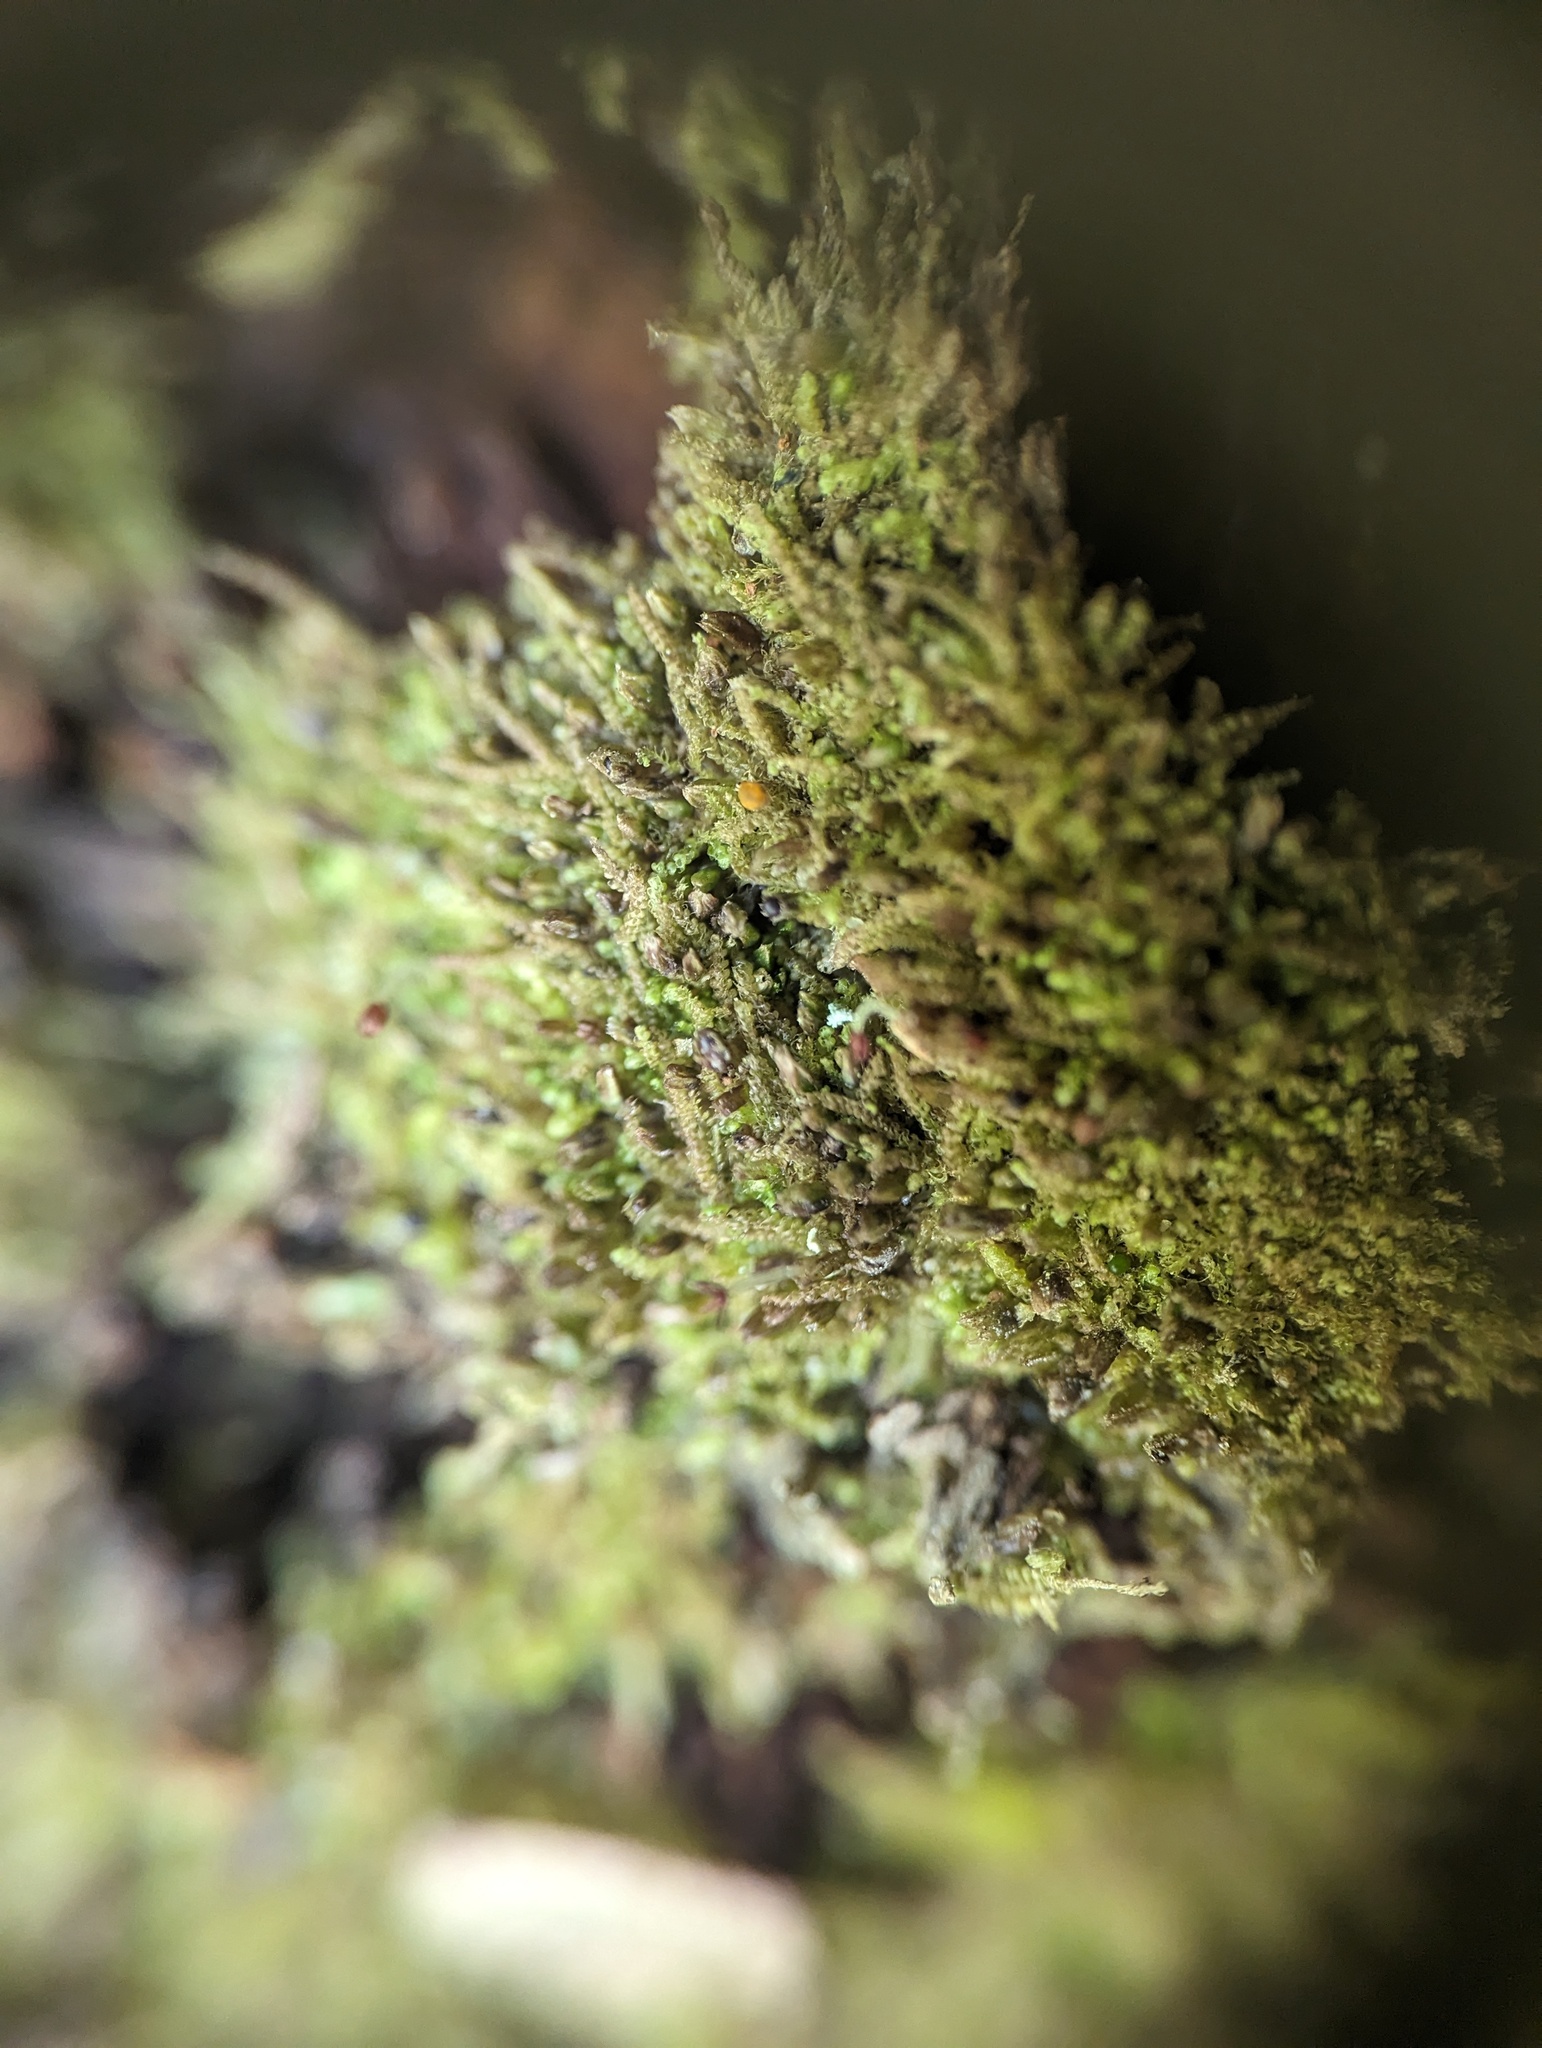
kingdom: Plantae
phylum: Marchantiophyta
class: Jungermanniopsida
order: Jungermanniales
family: Cephaloziaceae
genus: Nowellia
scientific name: Nowellia curvifolia
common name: Wood rustwort
